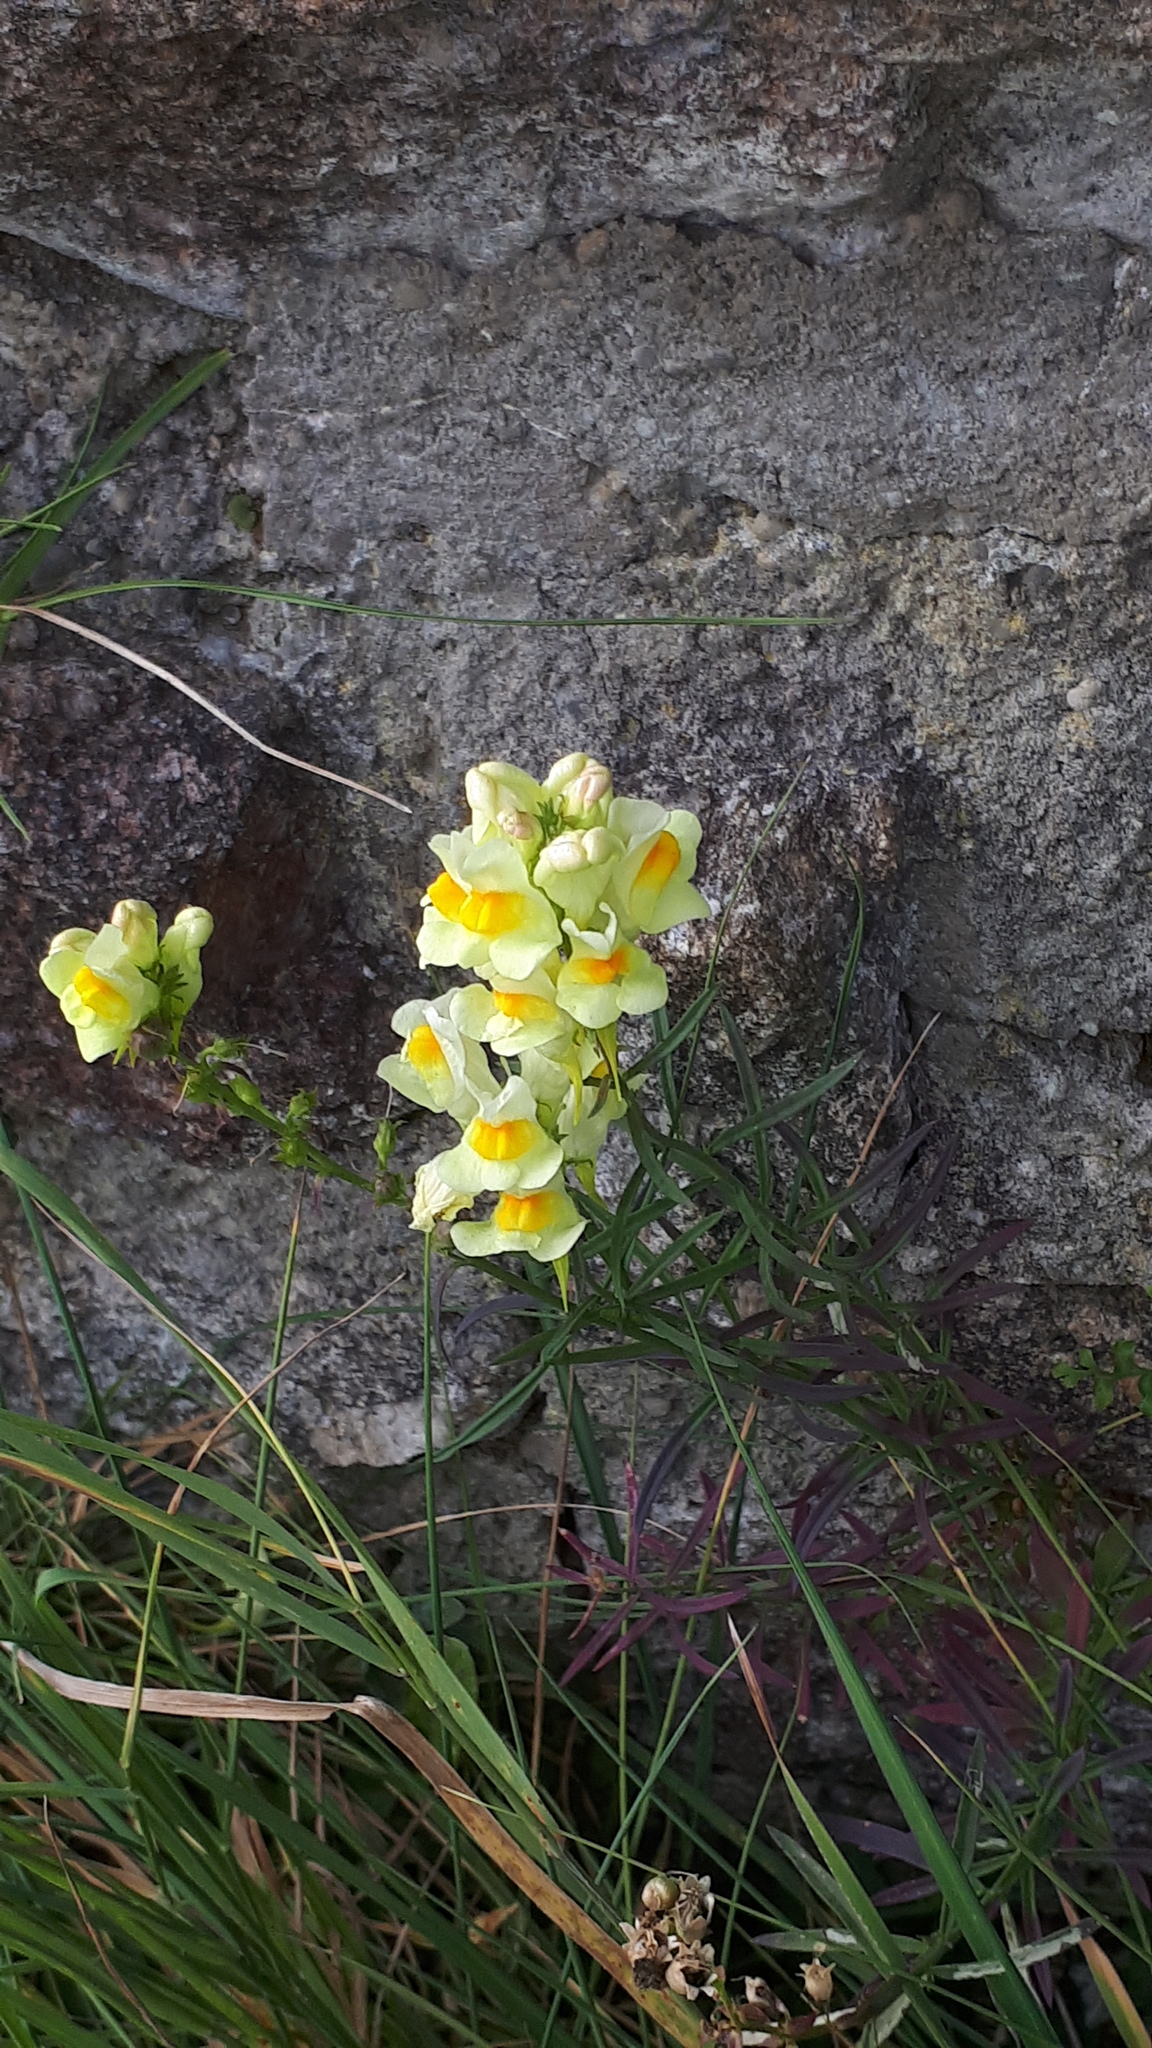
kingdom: Plantae
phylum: Tracheophyta
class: Magnoliopsida
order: Lamiales
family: Plantaginaceae
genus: Linaria
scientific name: Linaria vulgaris
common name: Butter and eggs
